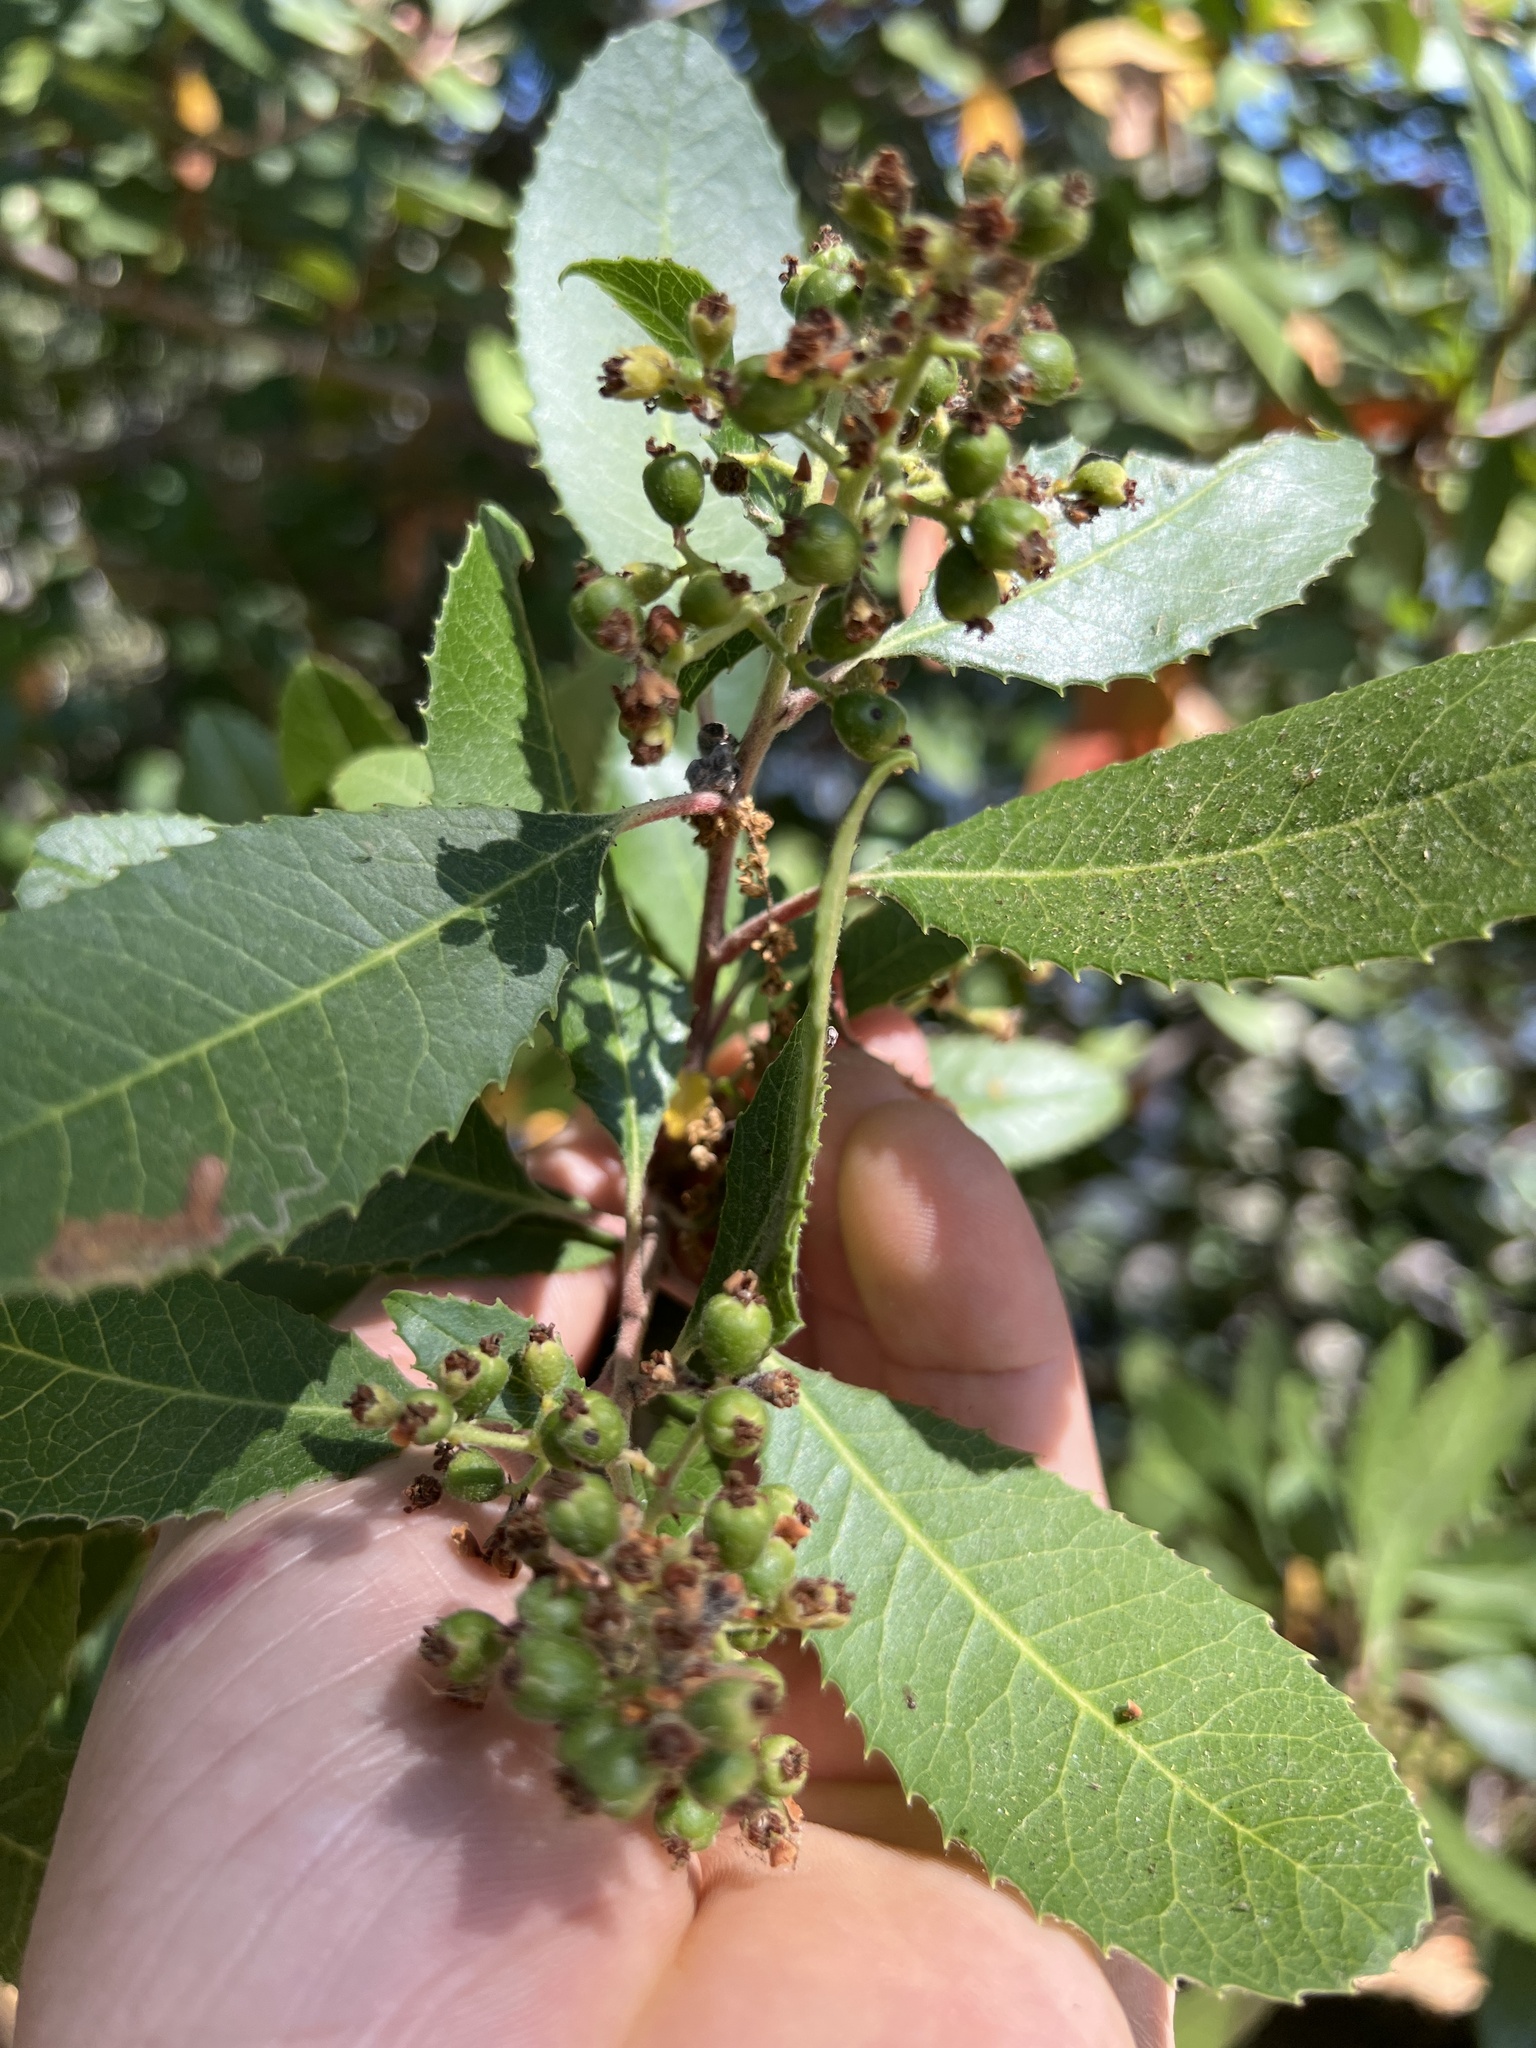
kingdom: Plantae
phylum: Tracheophyta
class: Magnoliopsida
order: Rosales
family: Rosaceae
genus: Heteromeles
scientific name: Heteromeles arbutifolia
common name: California-holly
